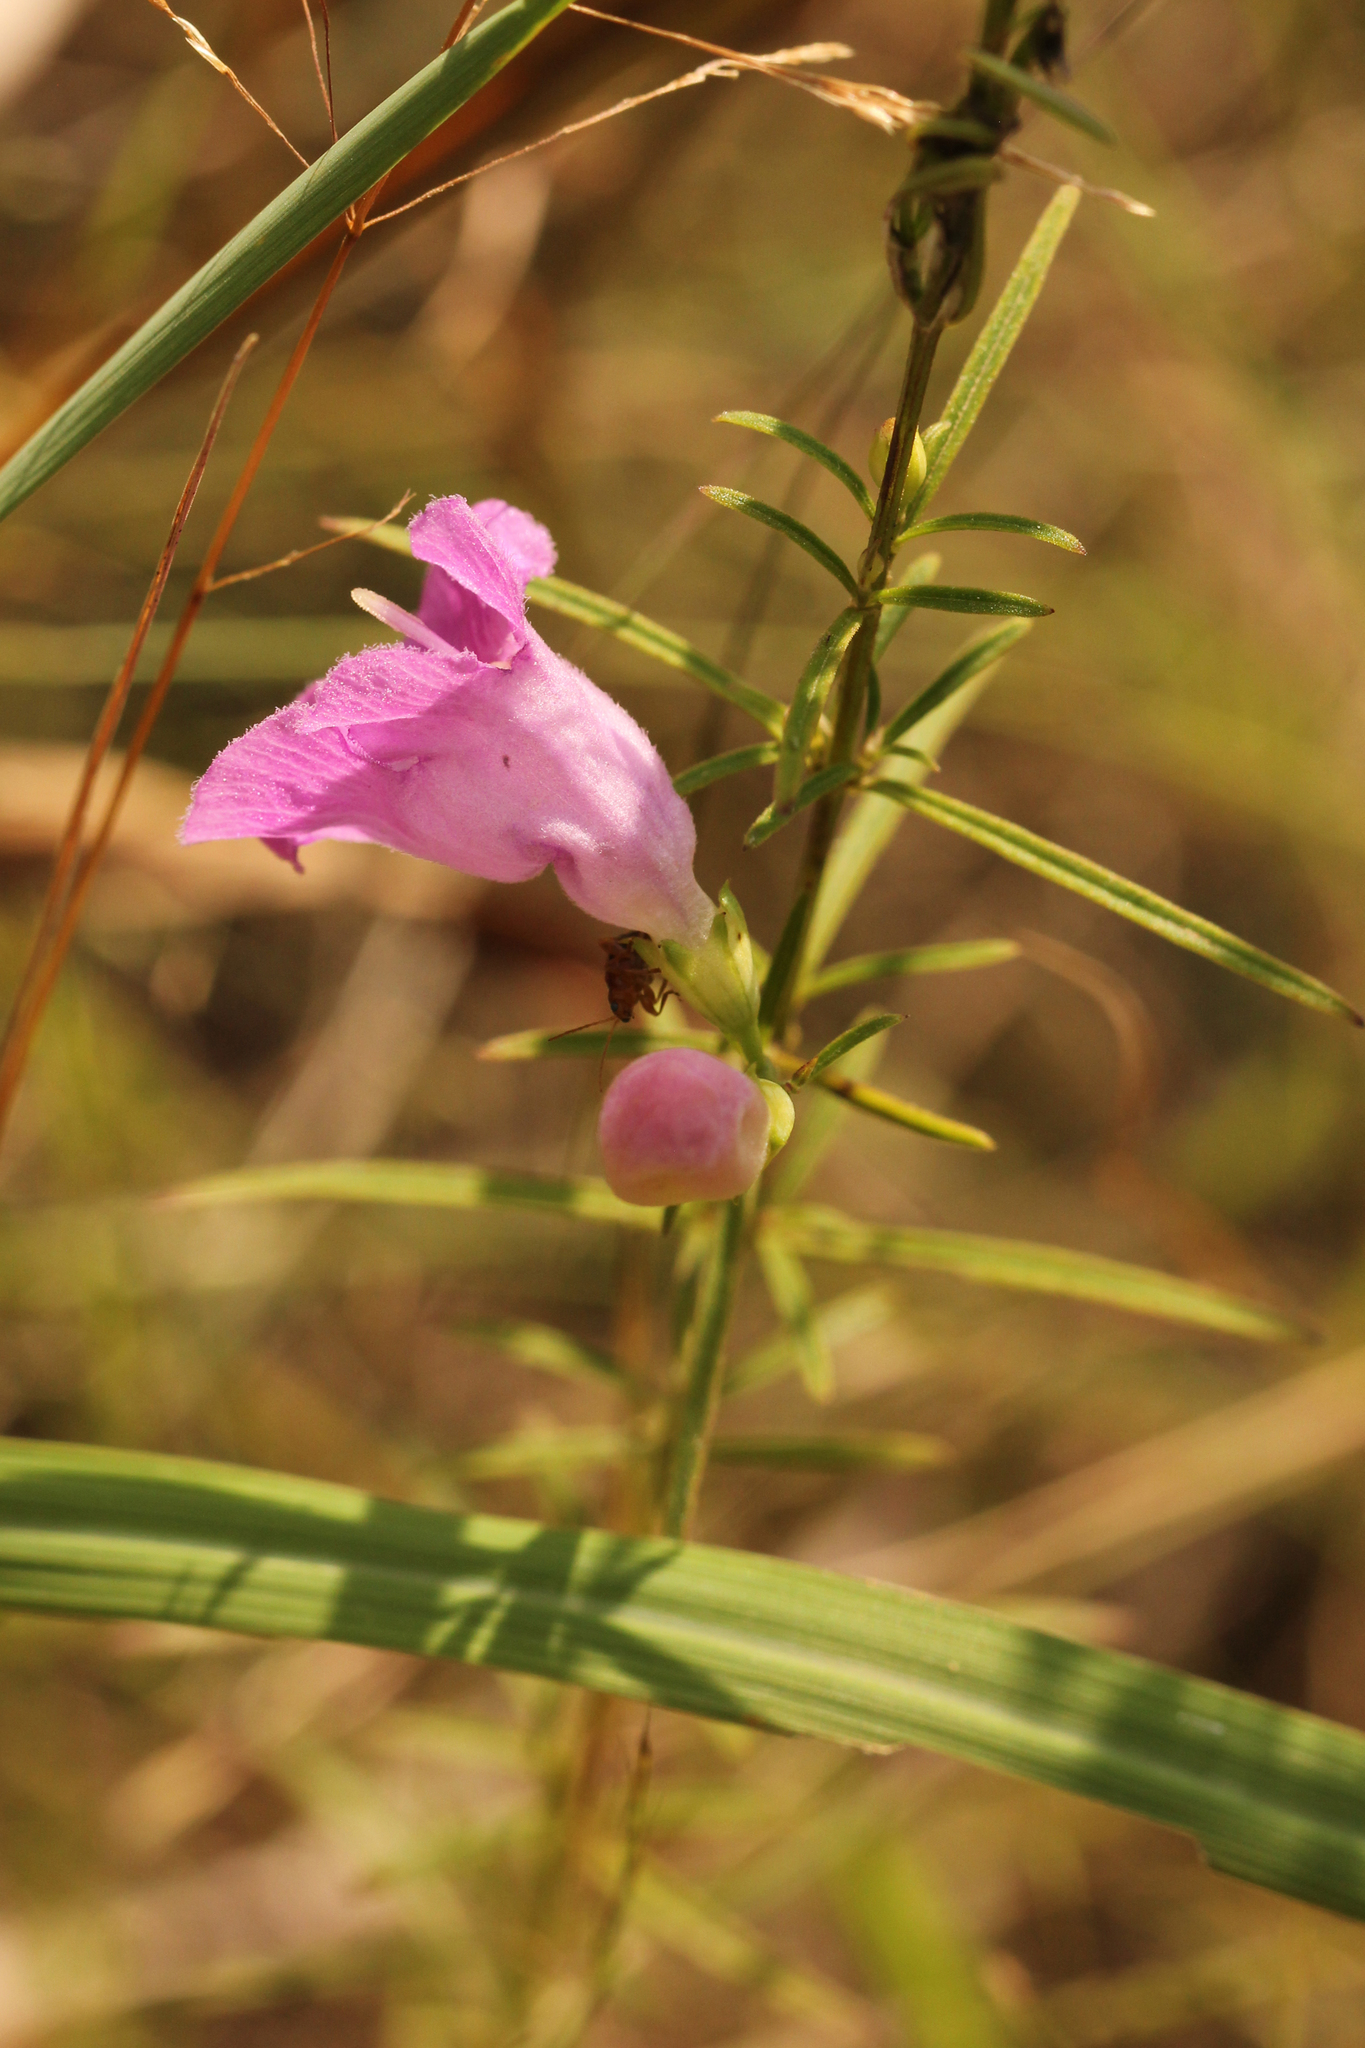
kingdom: Plantae
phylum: Tracheophyta
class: Magnoliopsida
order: Lamiales
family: Orobanchaceae
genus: Agalinis
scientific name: Agalinis purpurea
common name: Purple false foxglove
